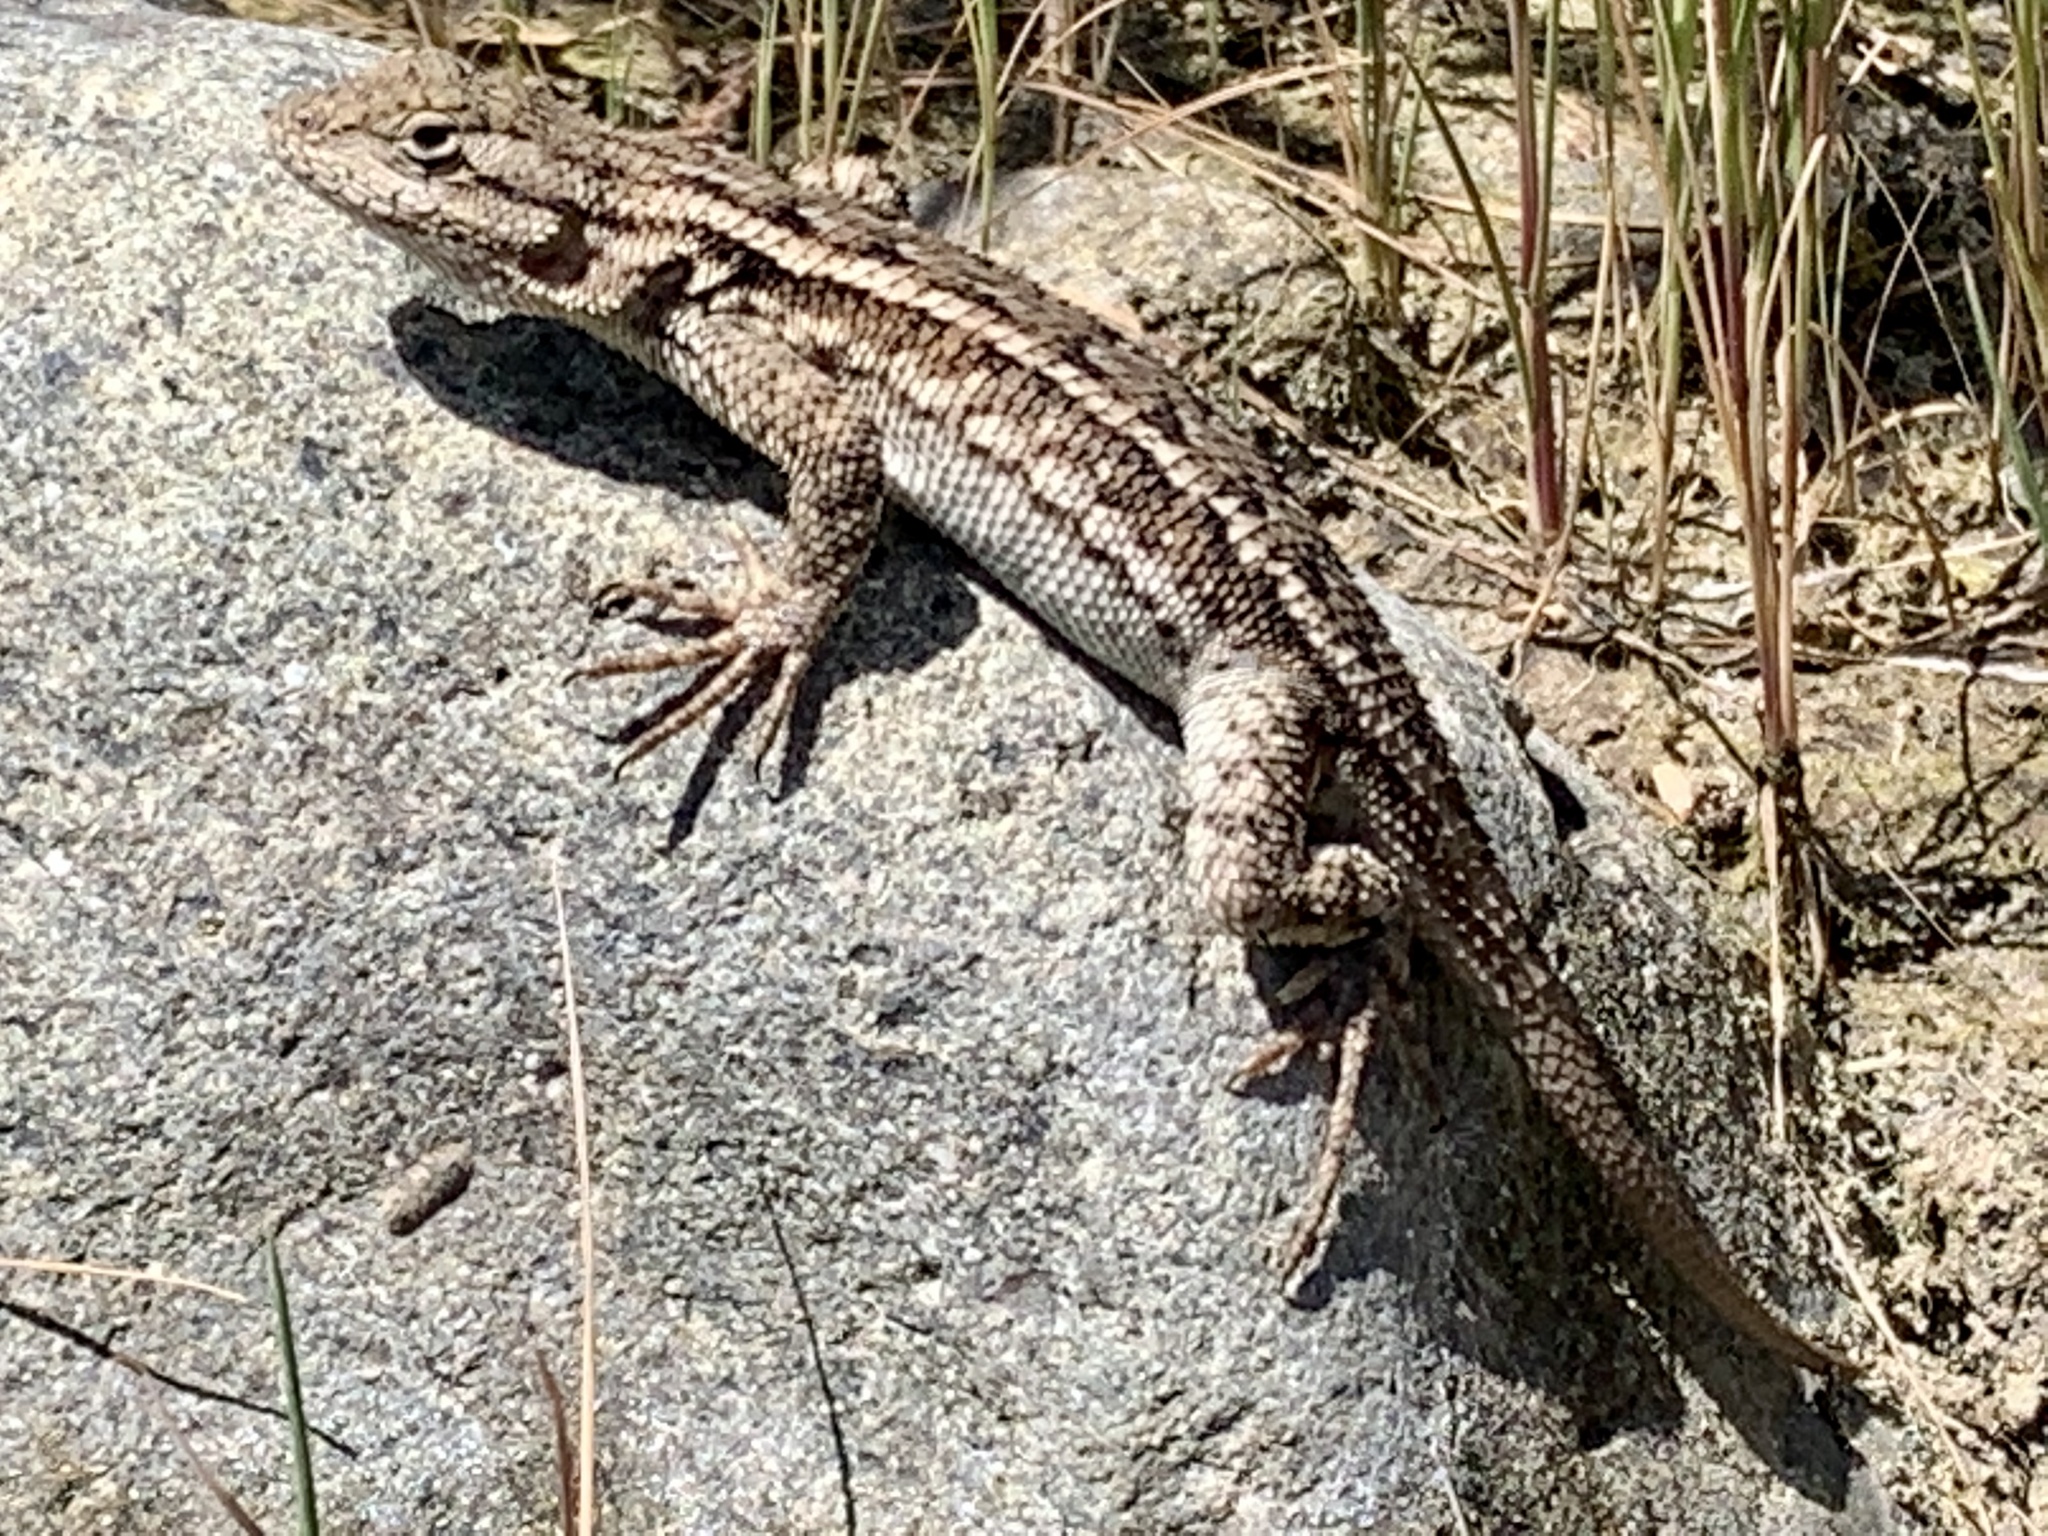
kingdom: Animalia
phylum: Chordata
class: Squamata
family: Phrynosomatidae
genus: Sceloporus
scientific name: Sceloporus occidentalis
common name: Western fence lizard
